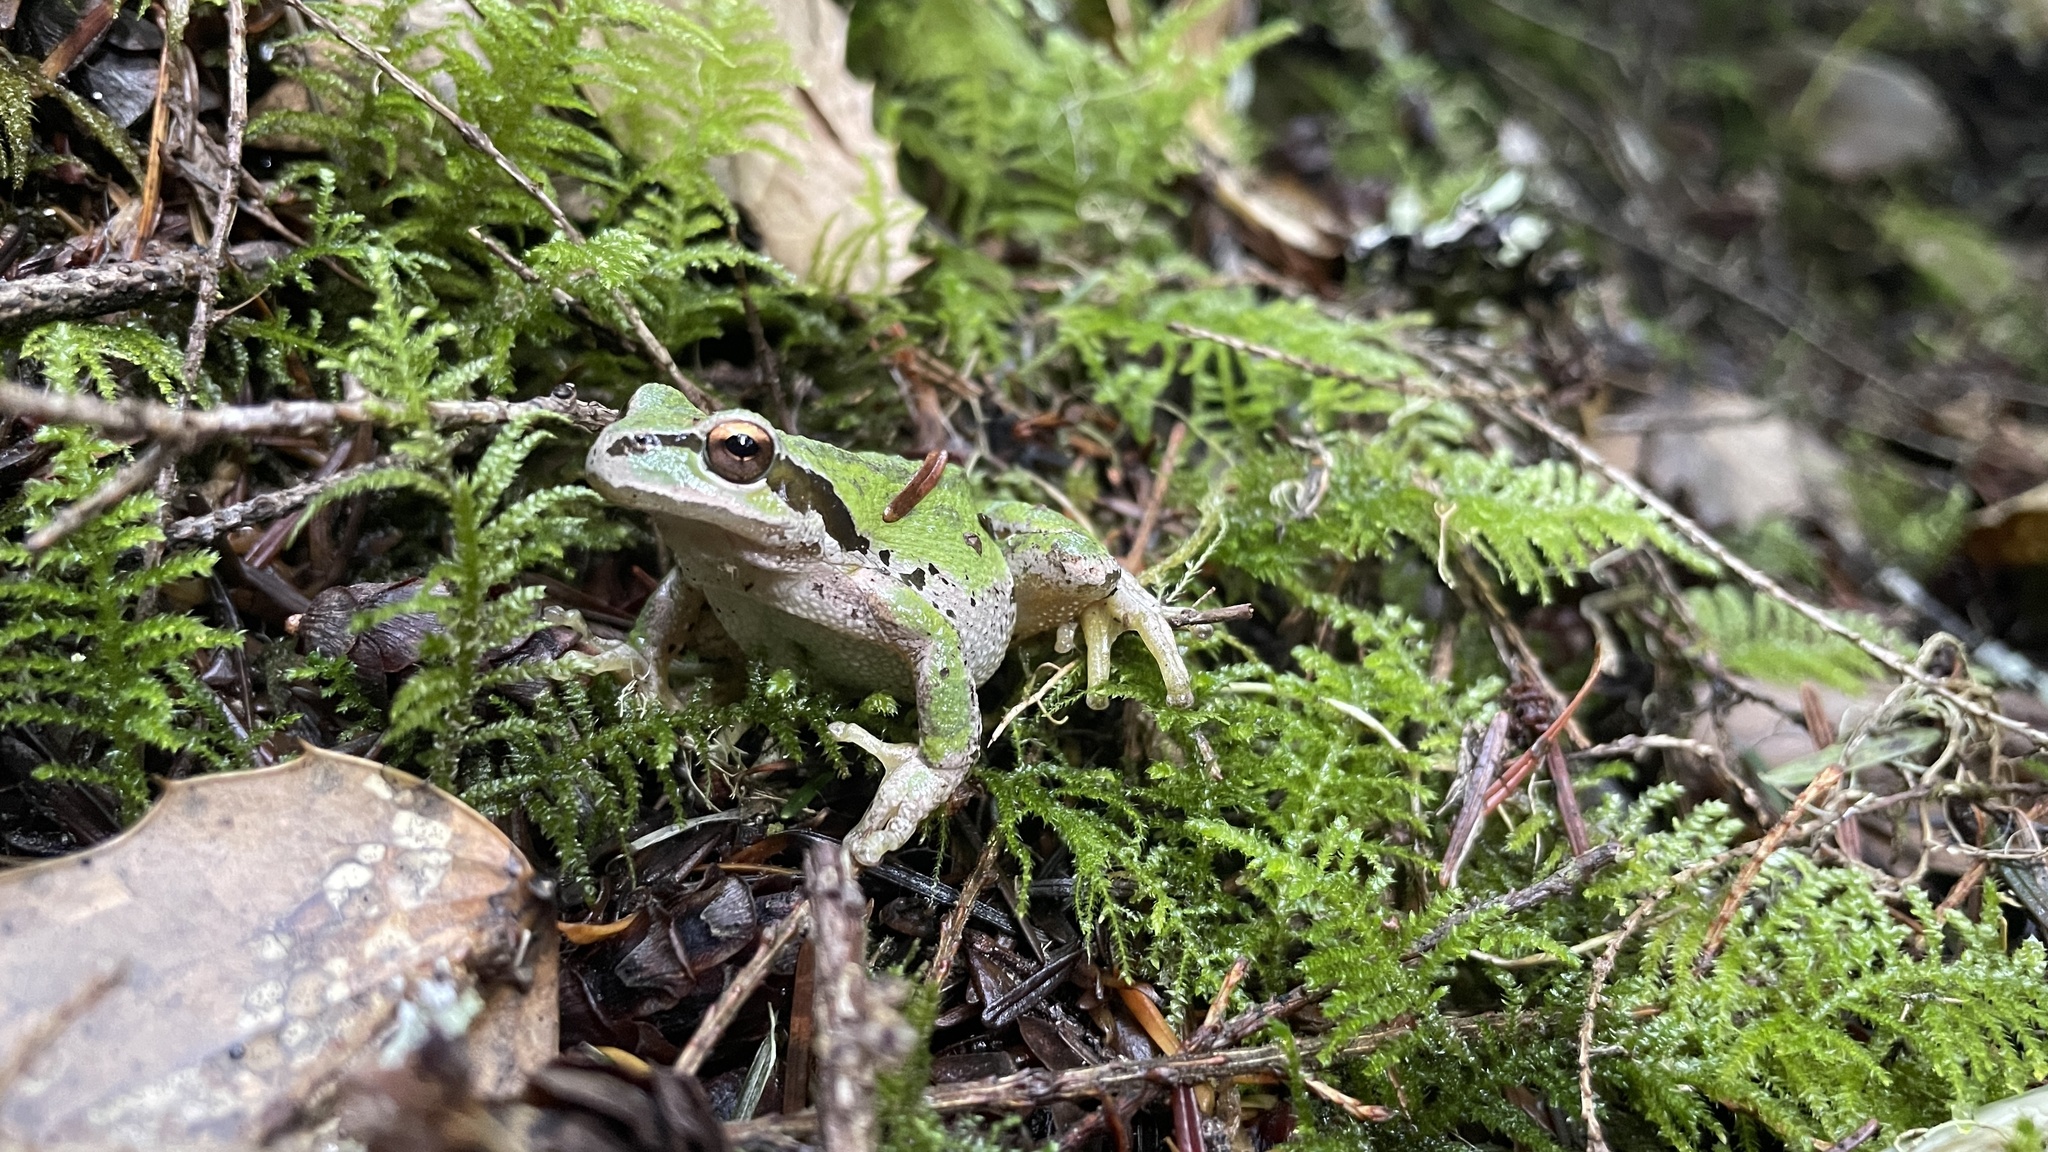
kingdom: Animalia
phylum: Chordata
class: Amphibia
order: Anura
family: Hylidae
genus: Pseudacris
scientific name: Pseudacris regilla
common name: Pacific chorus frog
